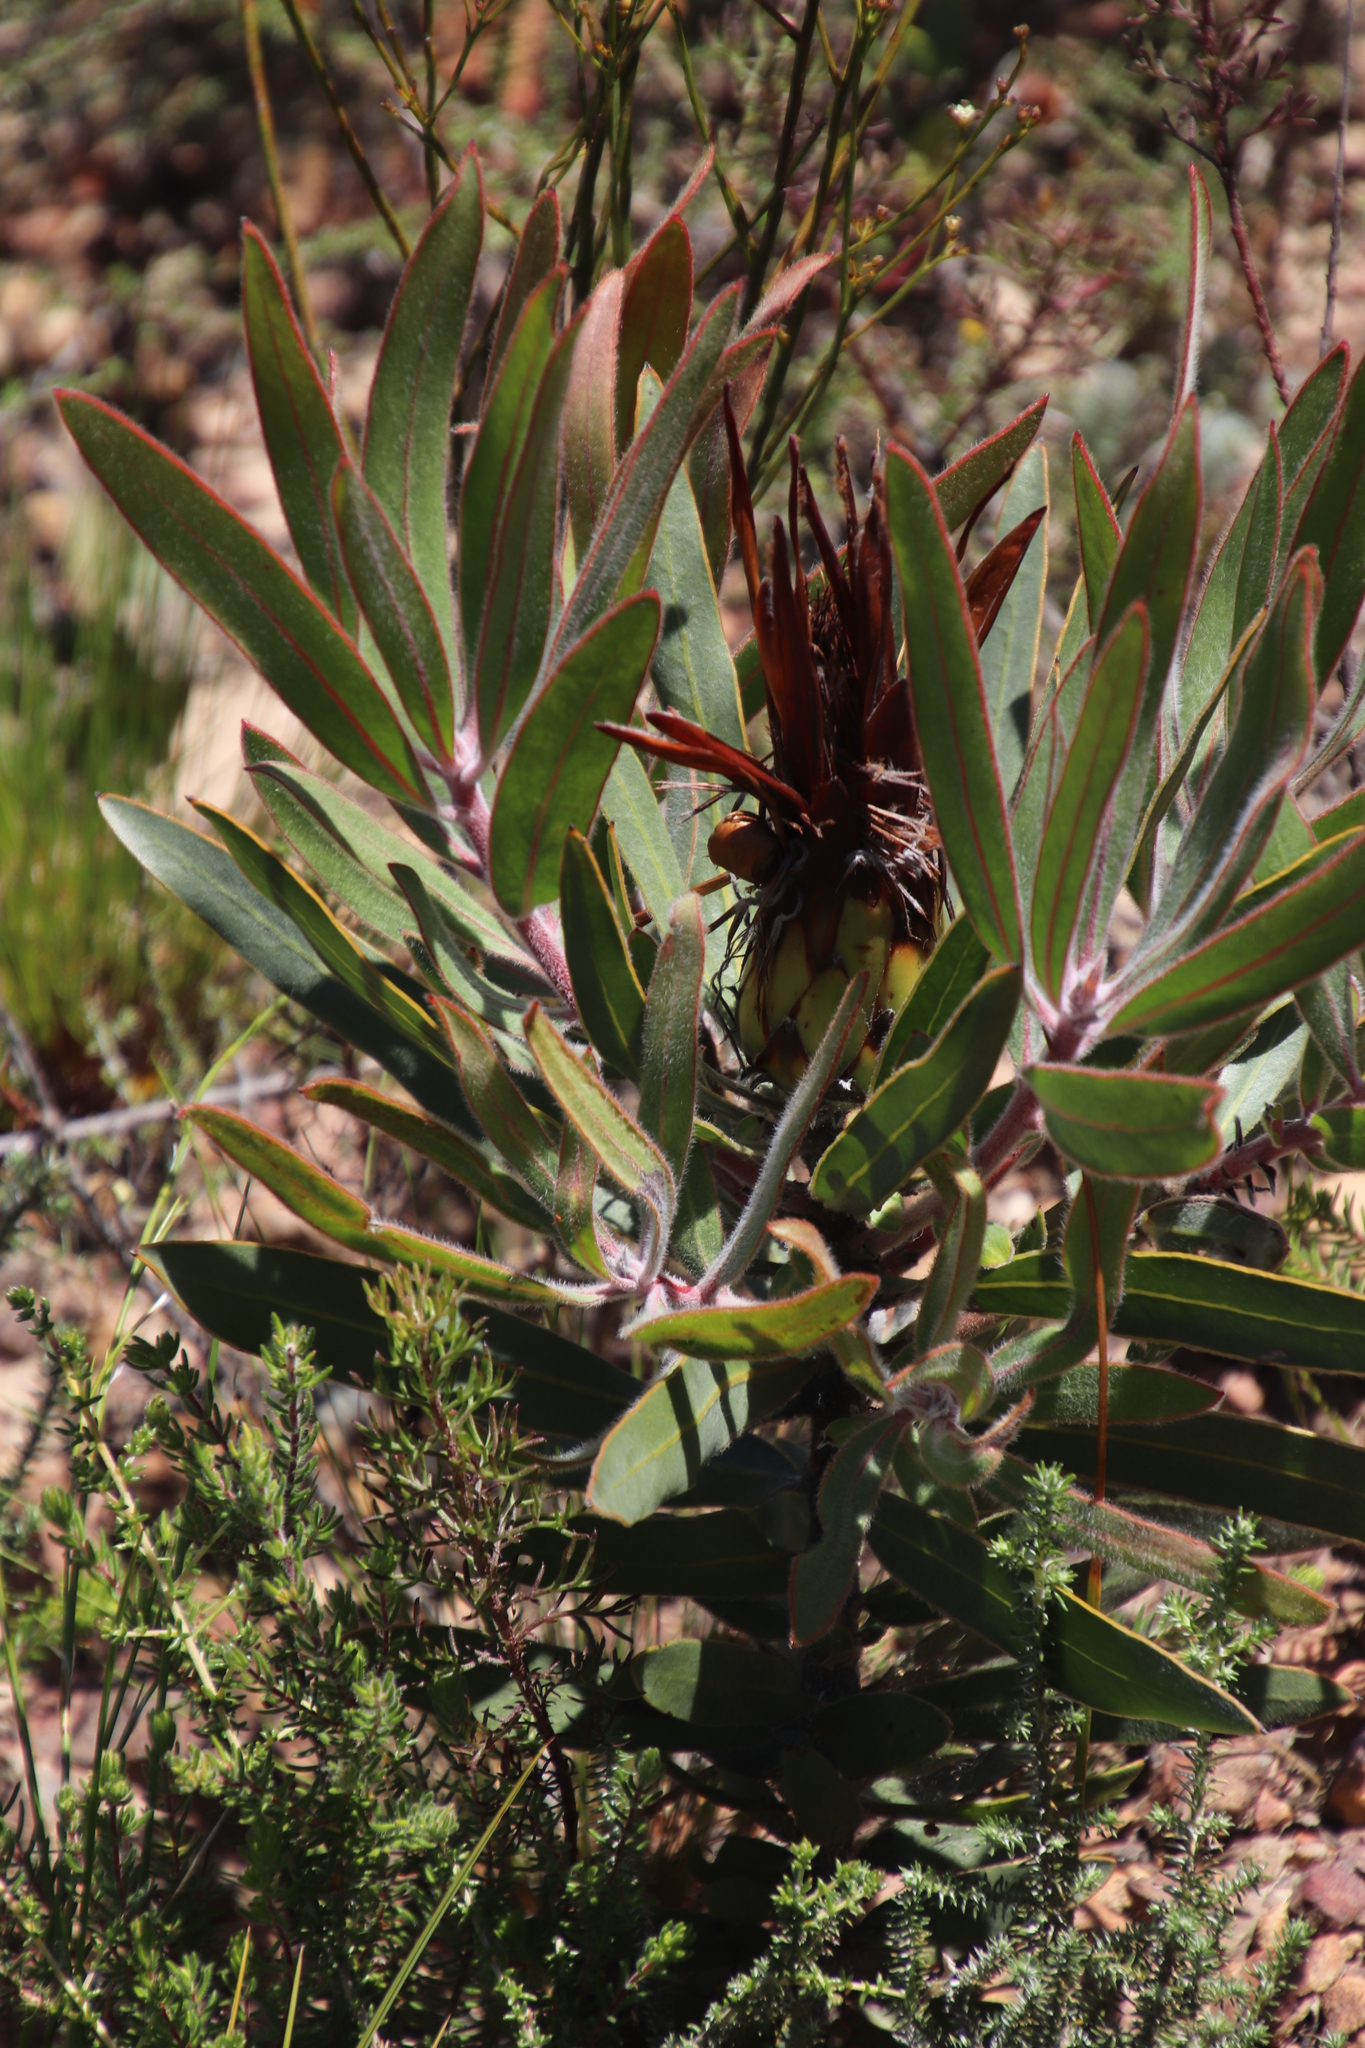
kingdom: Plantae
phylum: Tracheophyta
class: Magnoliopsida
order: Proteales
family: Proteaceae
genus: Protea
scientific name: Protea burchellii
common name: Burchell's sugarbush
